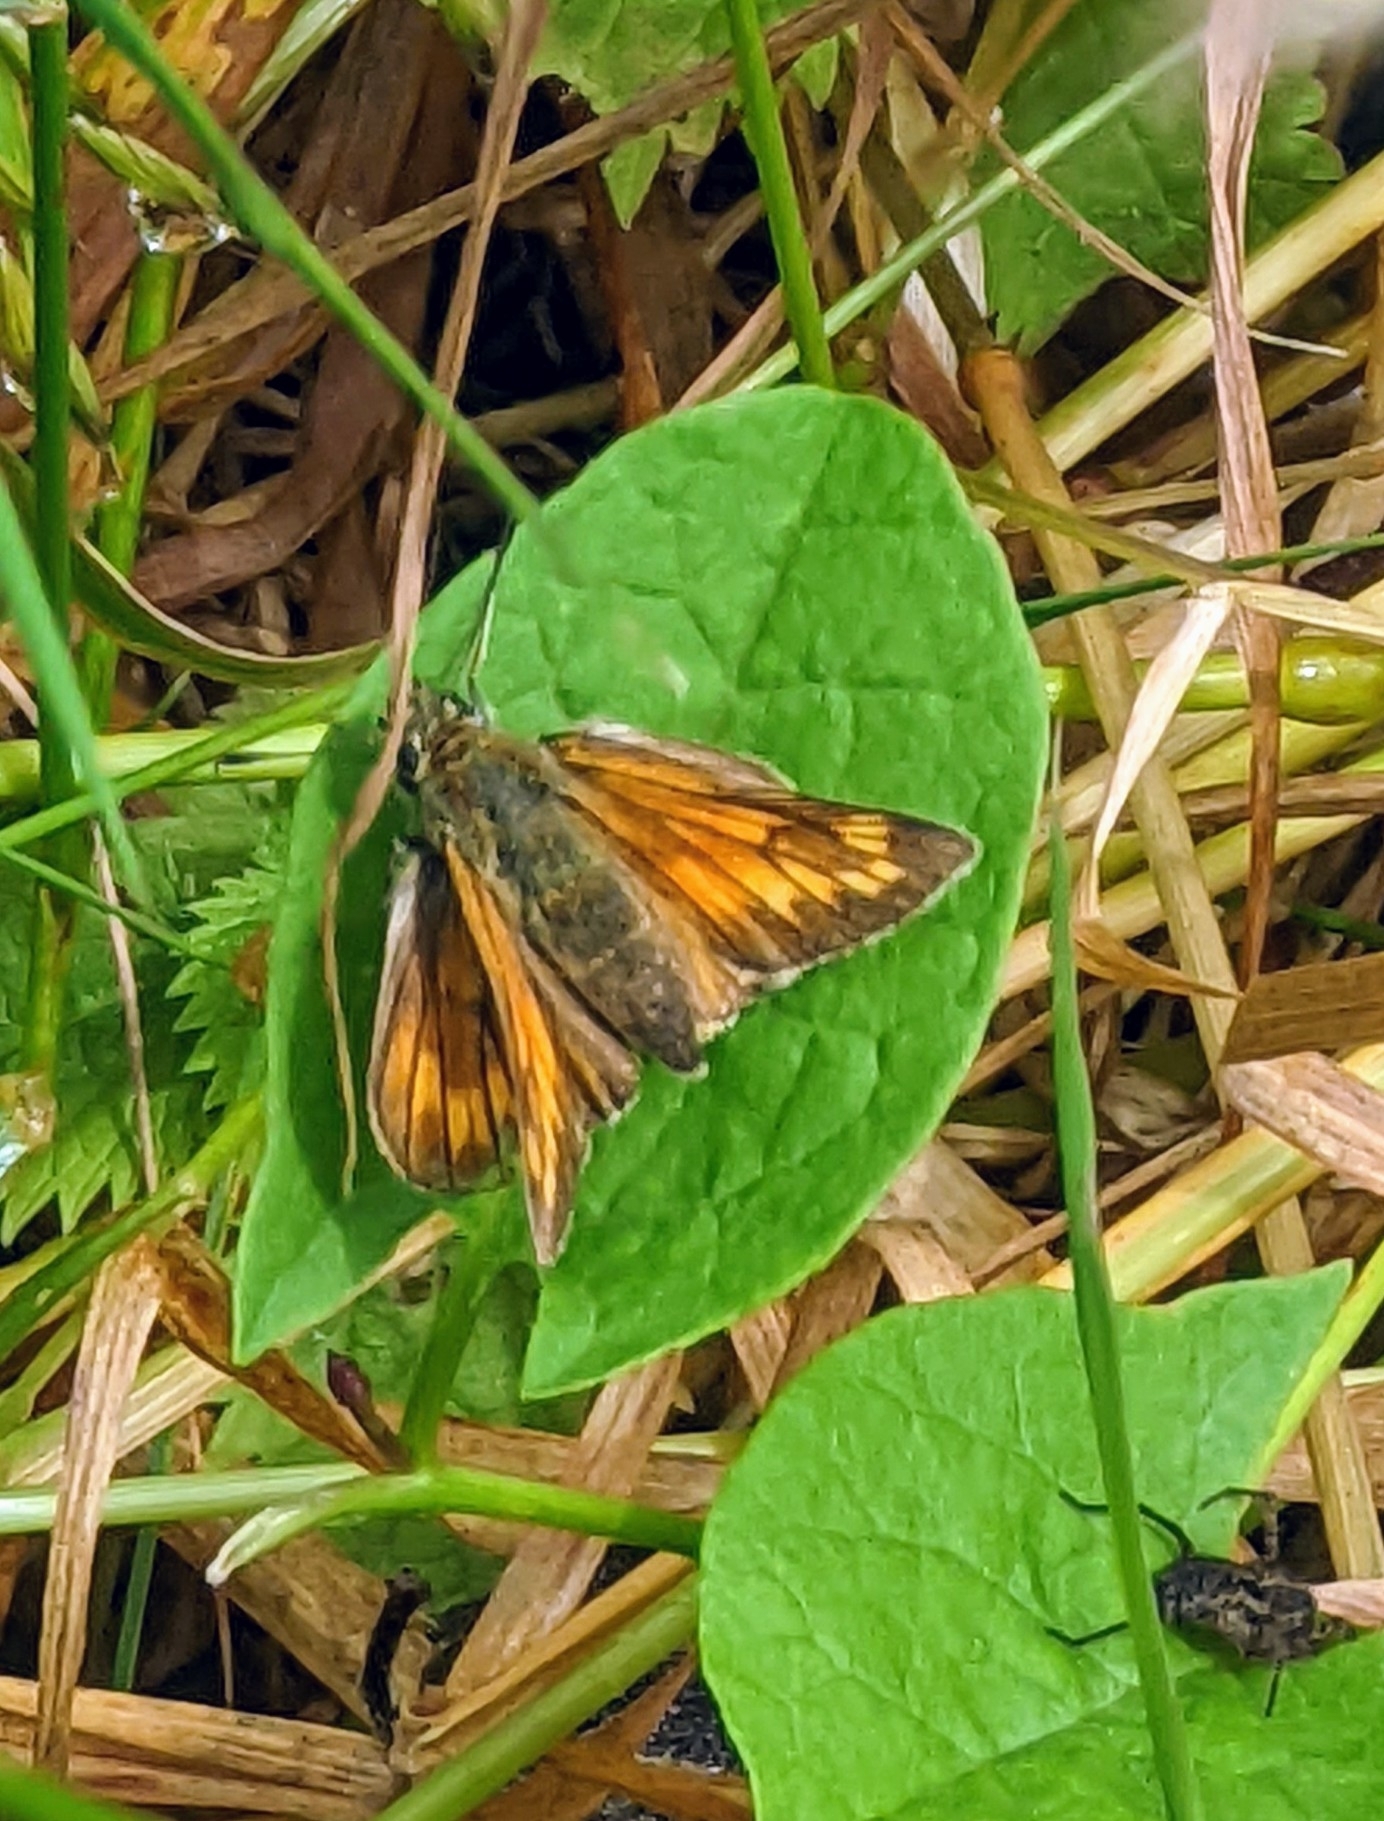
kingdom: Animalia
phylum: Arthropoda
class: Insecta
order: Lepidoptera
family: Hesperiidae
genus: Ochlodes
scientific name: Ochlodes venata
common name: Large skipper
